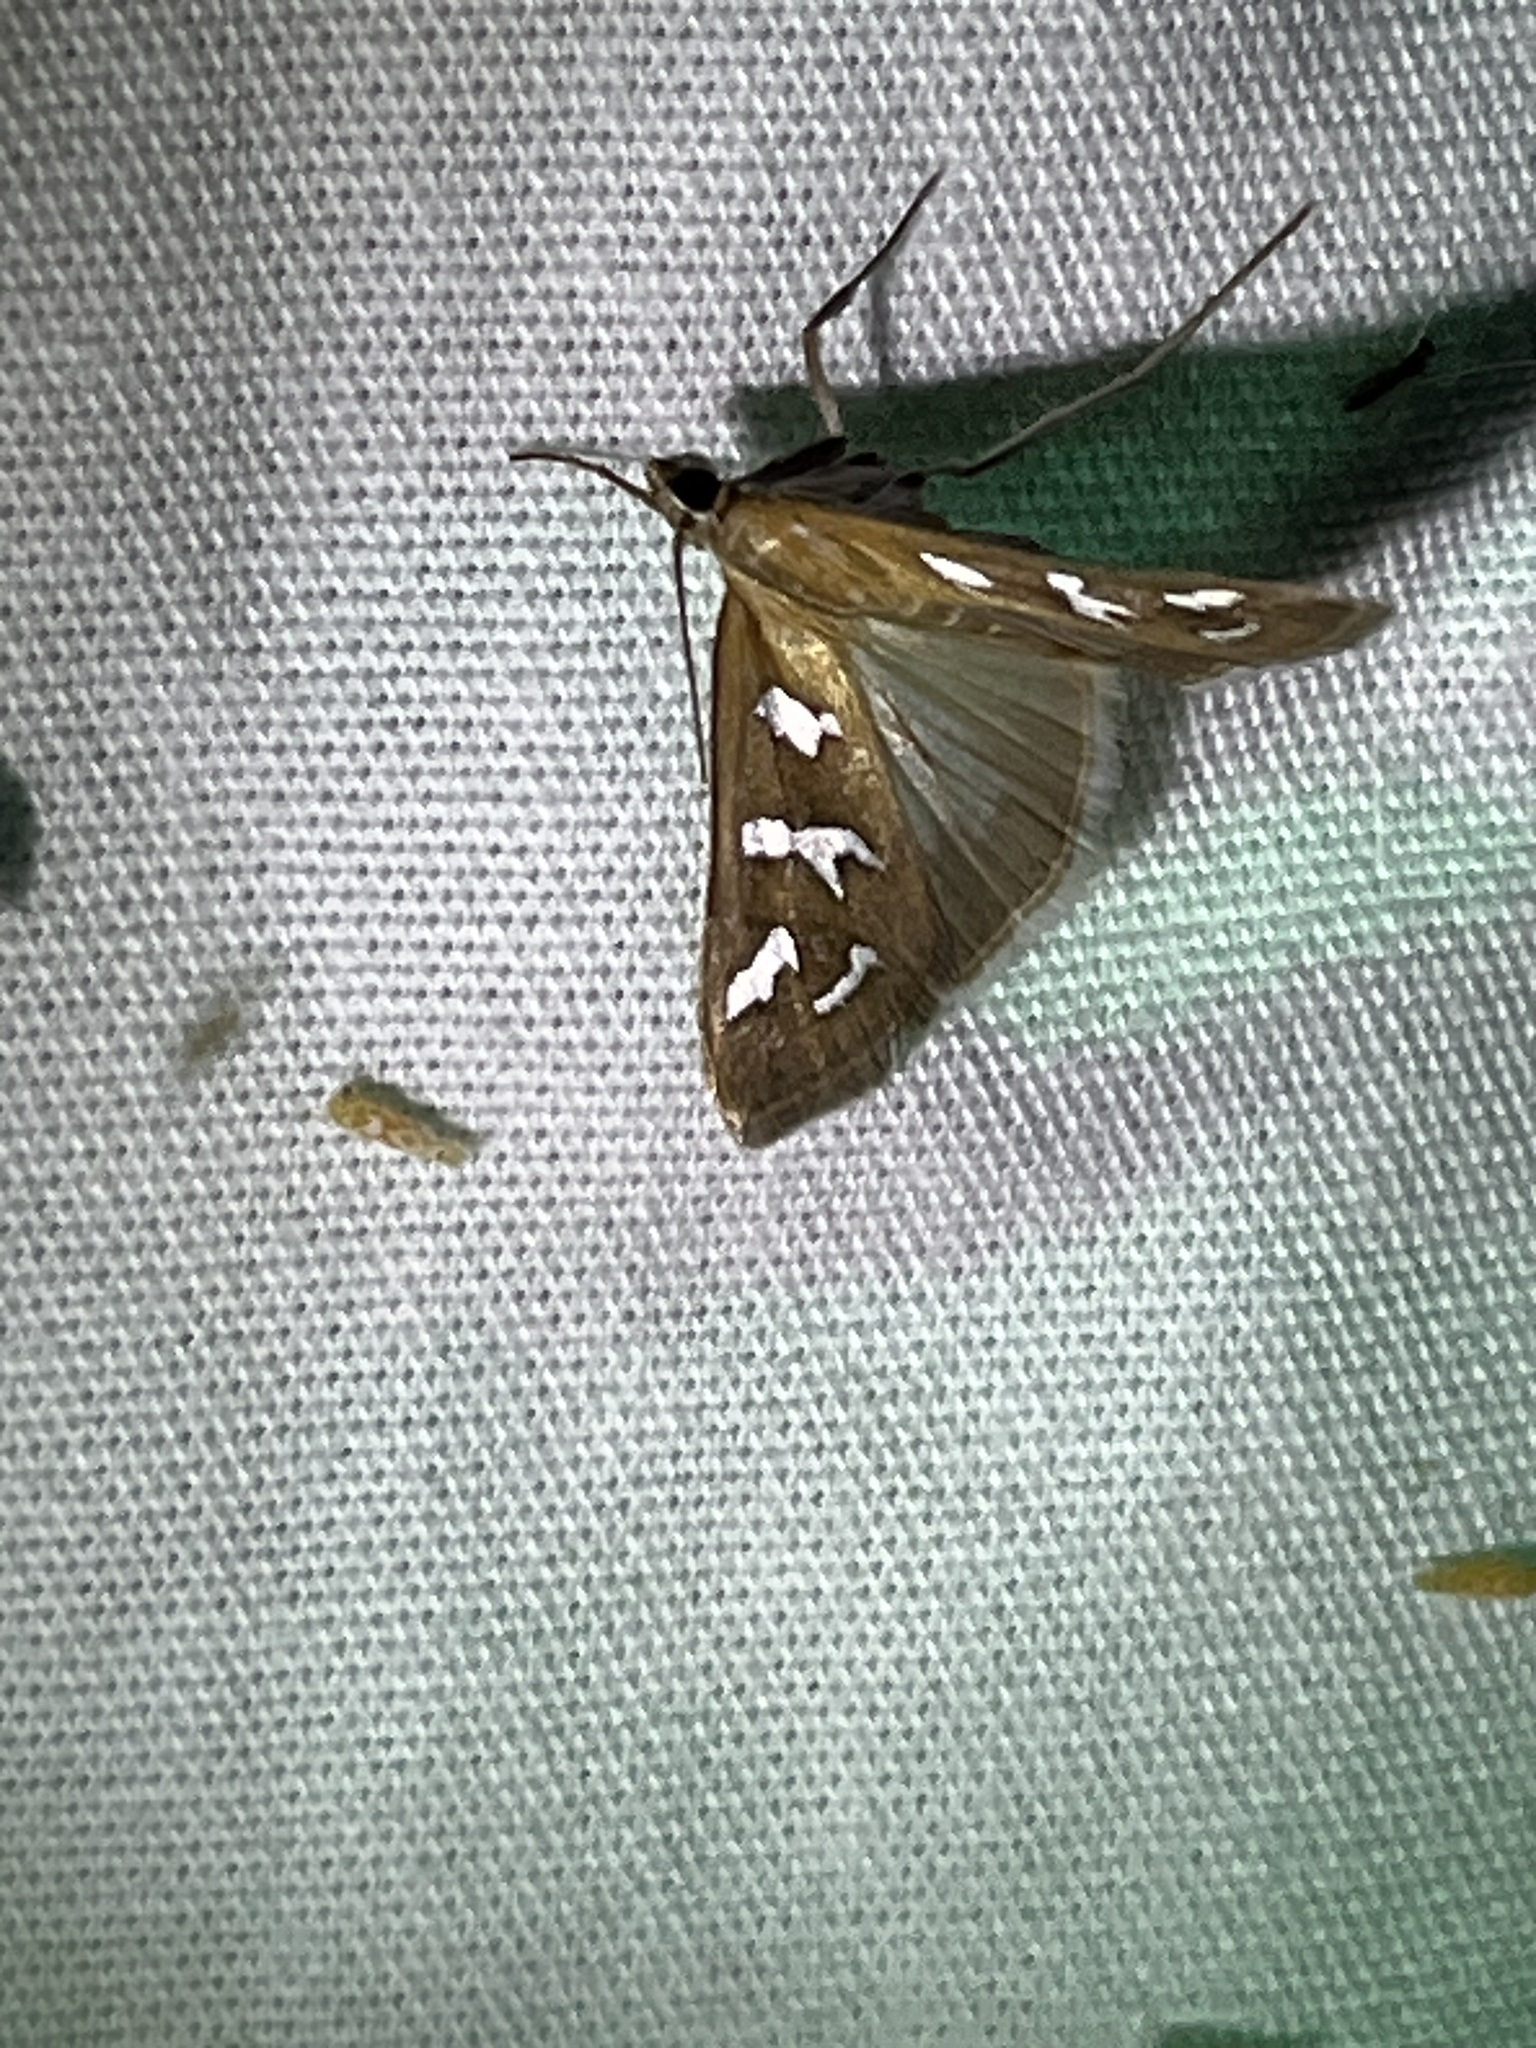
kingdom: Animalia
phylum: Arthropoda
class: Insecta
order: Lepidoptera
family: Crambidae
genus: Diastictis
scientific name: Diastictis fracturalis
